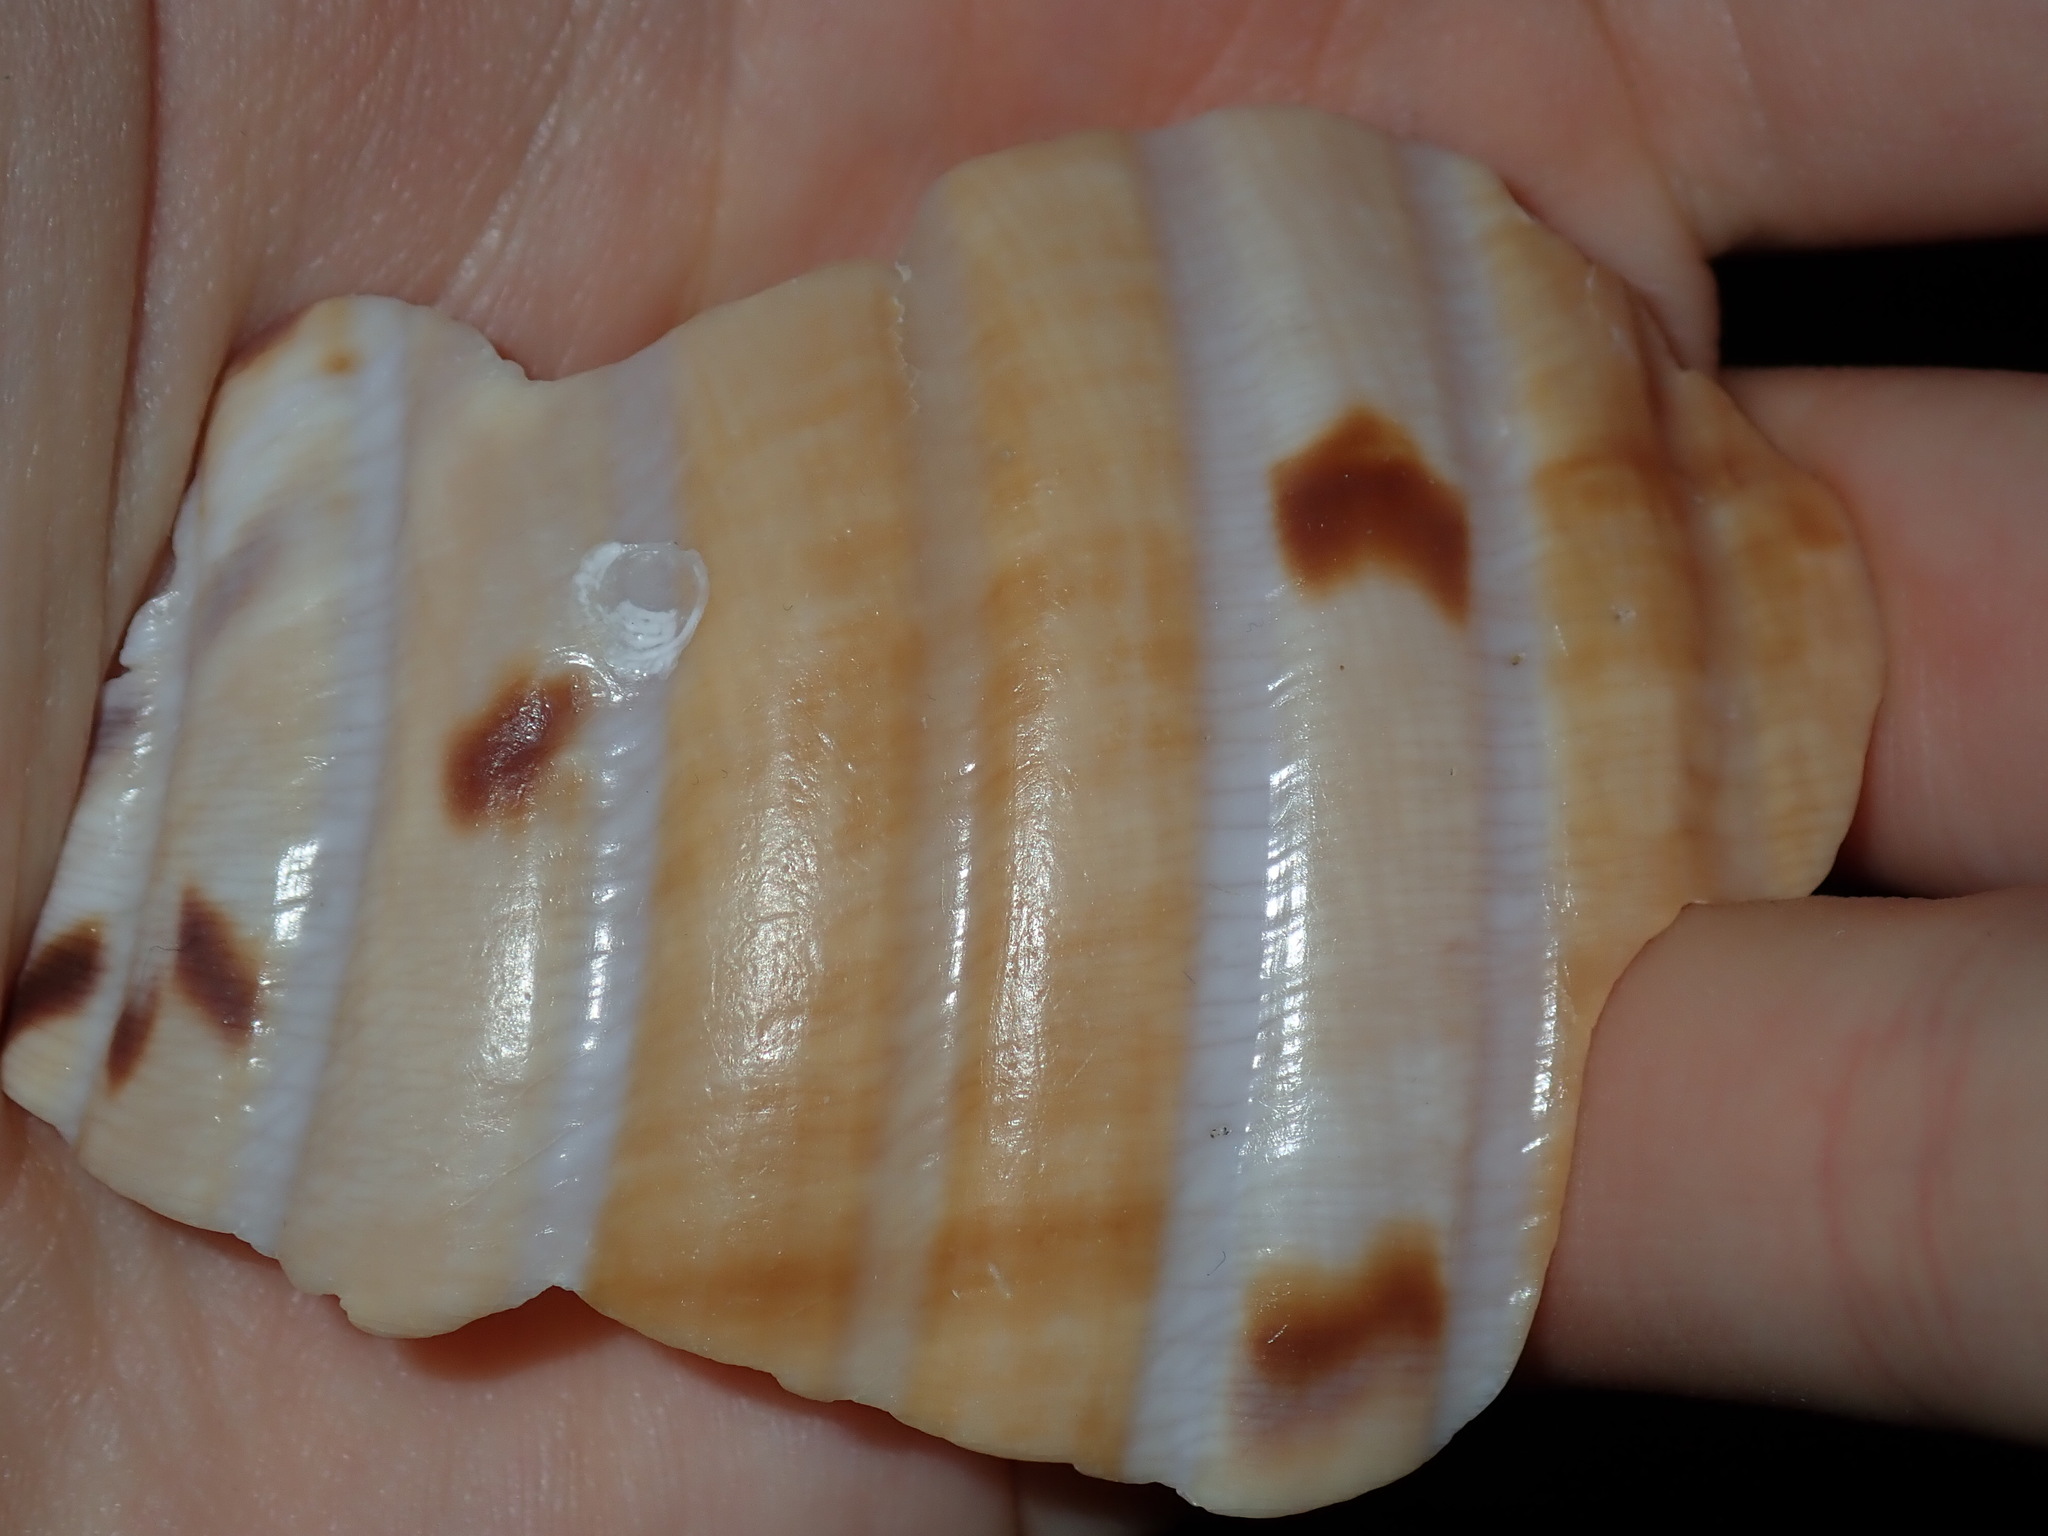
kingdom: Animalia
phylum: Mollusca
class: Gastropoda
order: Littorinimorpha
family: Tonnidae
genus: Tonna
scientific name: Tonna tankervillii
